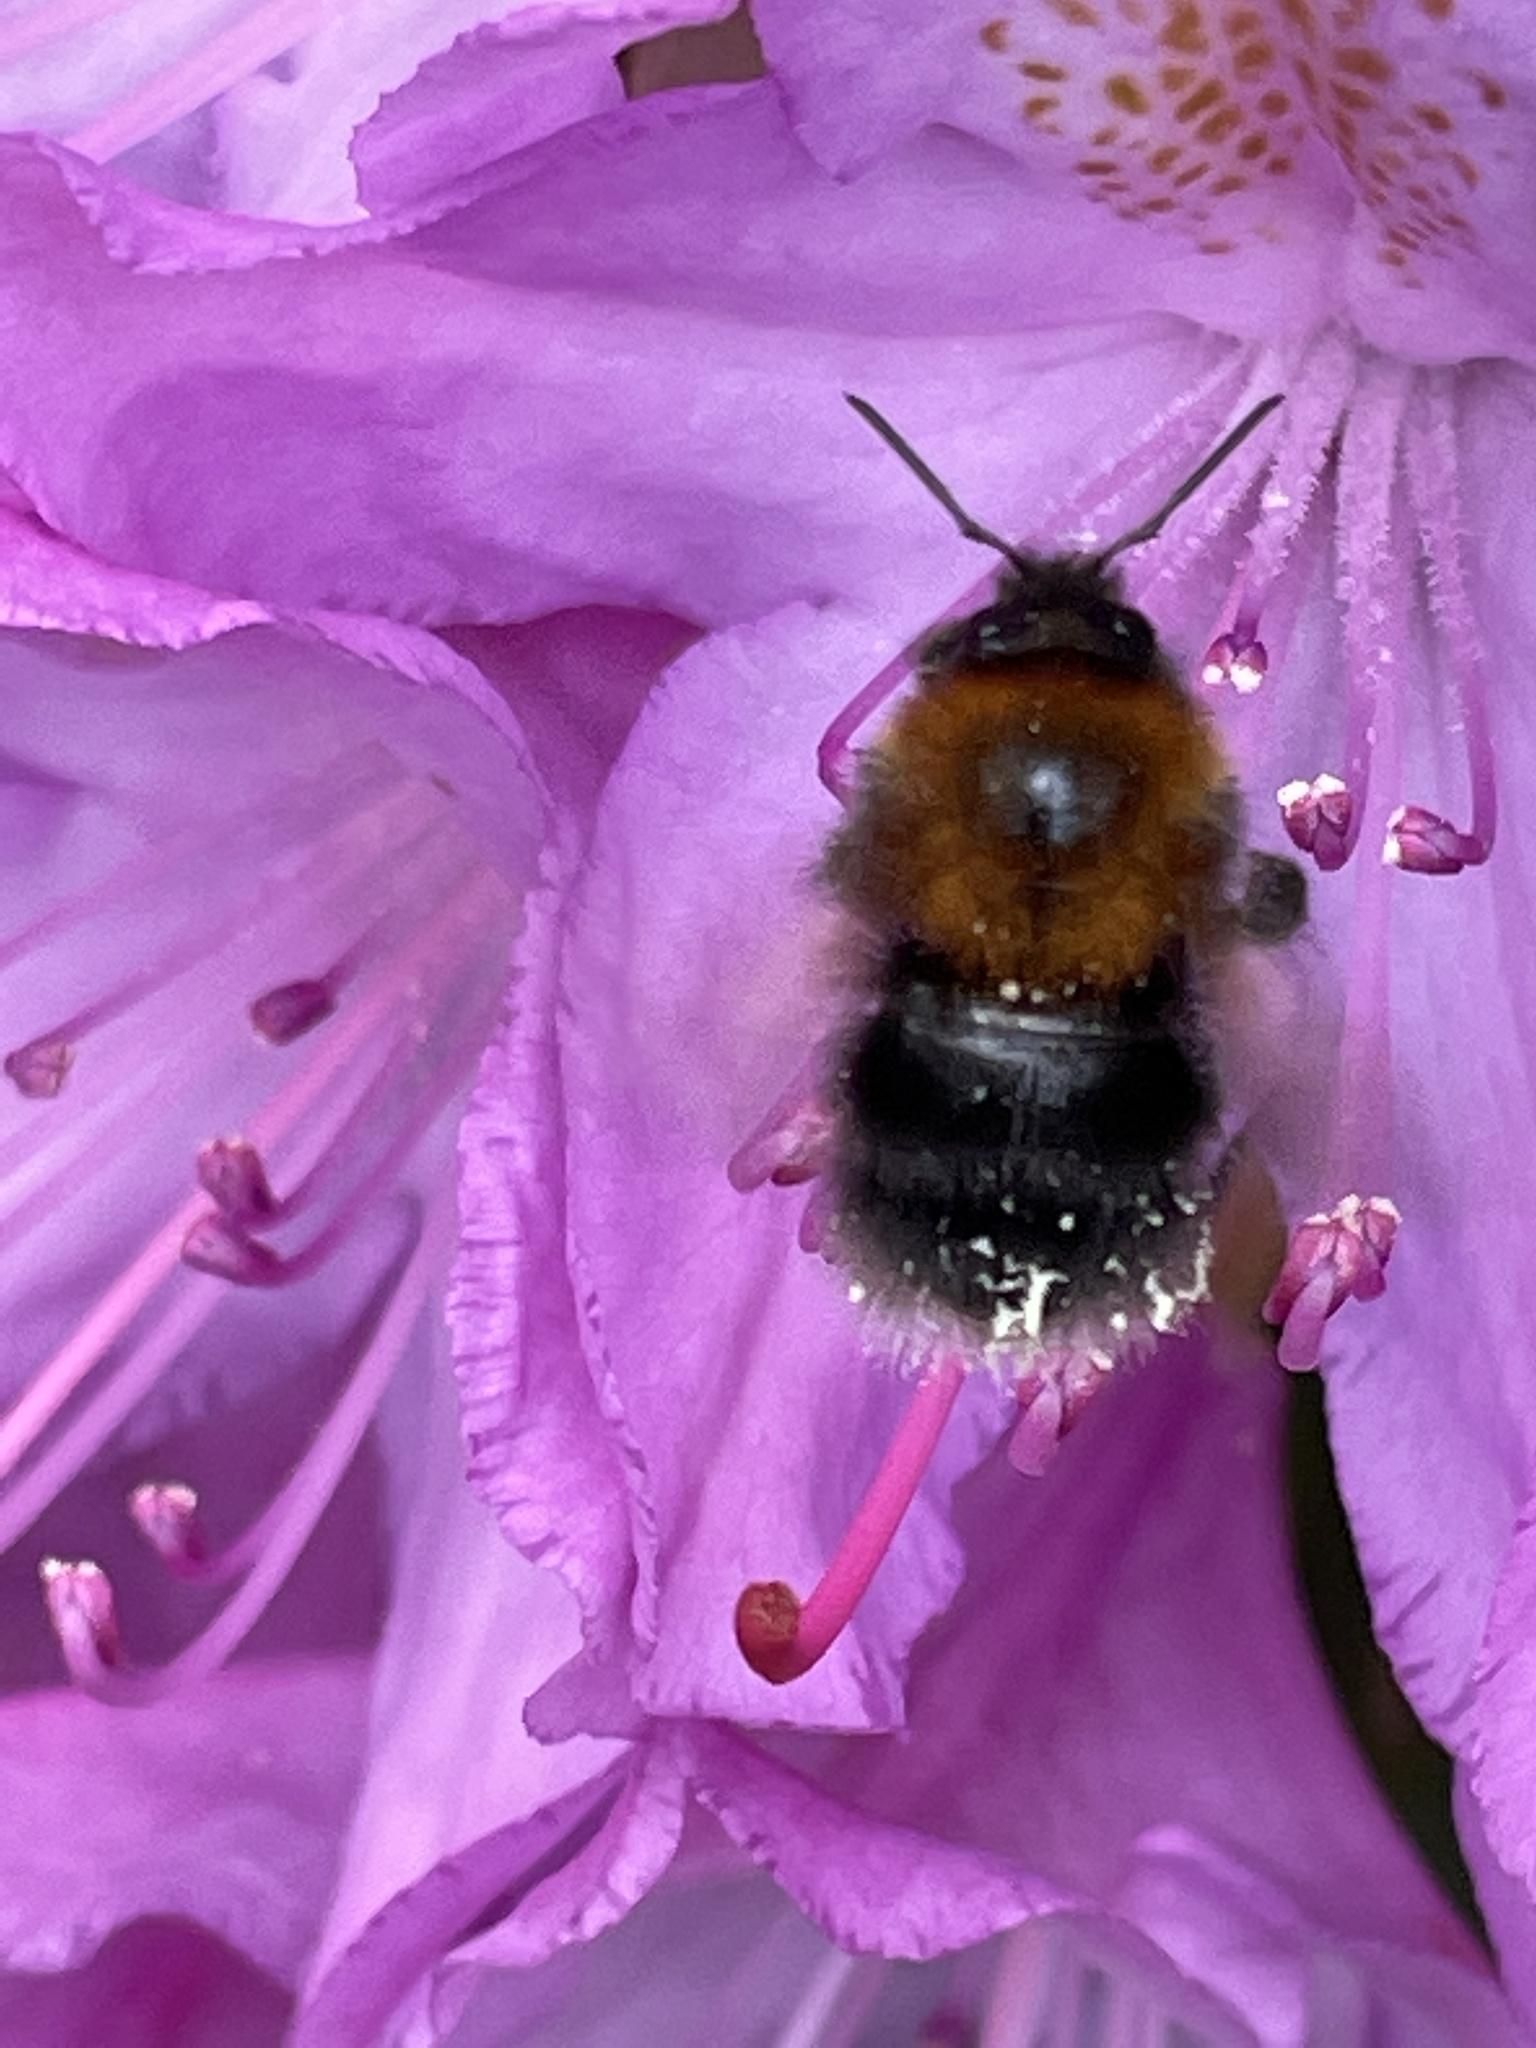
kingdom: Animalia
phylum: Arthropoda
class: Insecta
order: Hymenoptera
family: Apidae
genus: Bombus
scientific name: Bombus hypnorum
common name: New garden bumblebee
